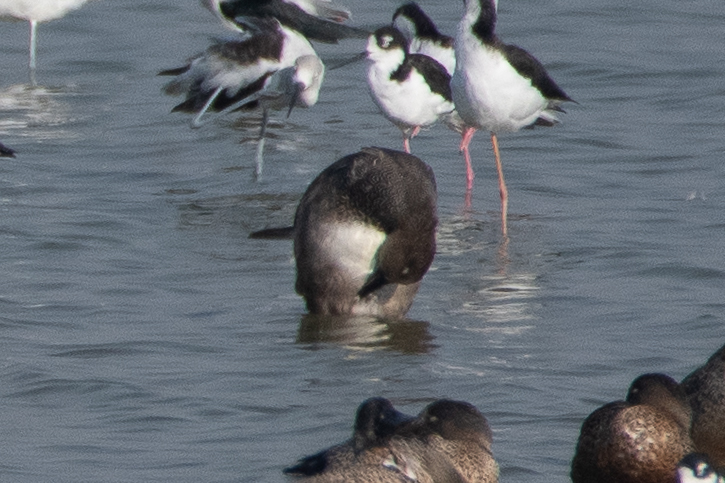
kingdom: Animalia
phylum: Chordata
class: Aves
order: Anseriformes
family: Anatidae
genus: Mareca
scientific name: Mareca strepera
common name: Gadwall
